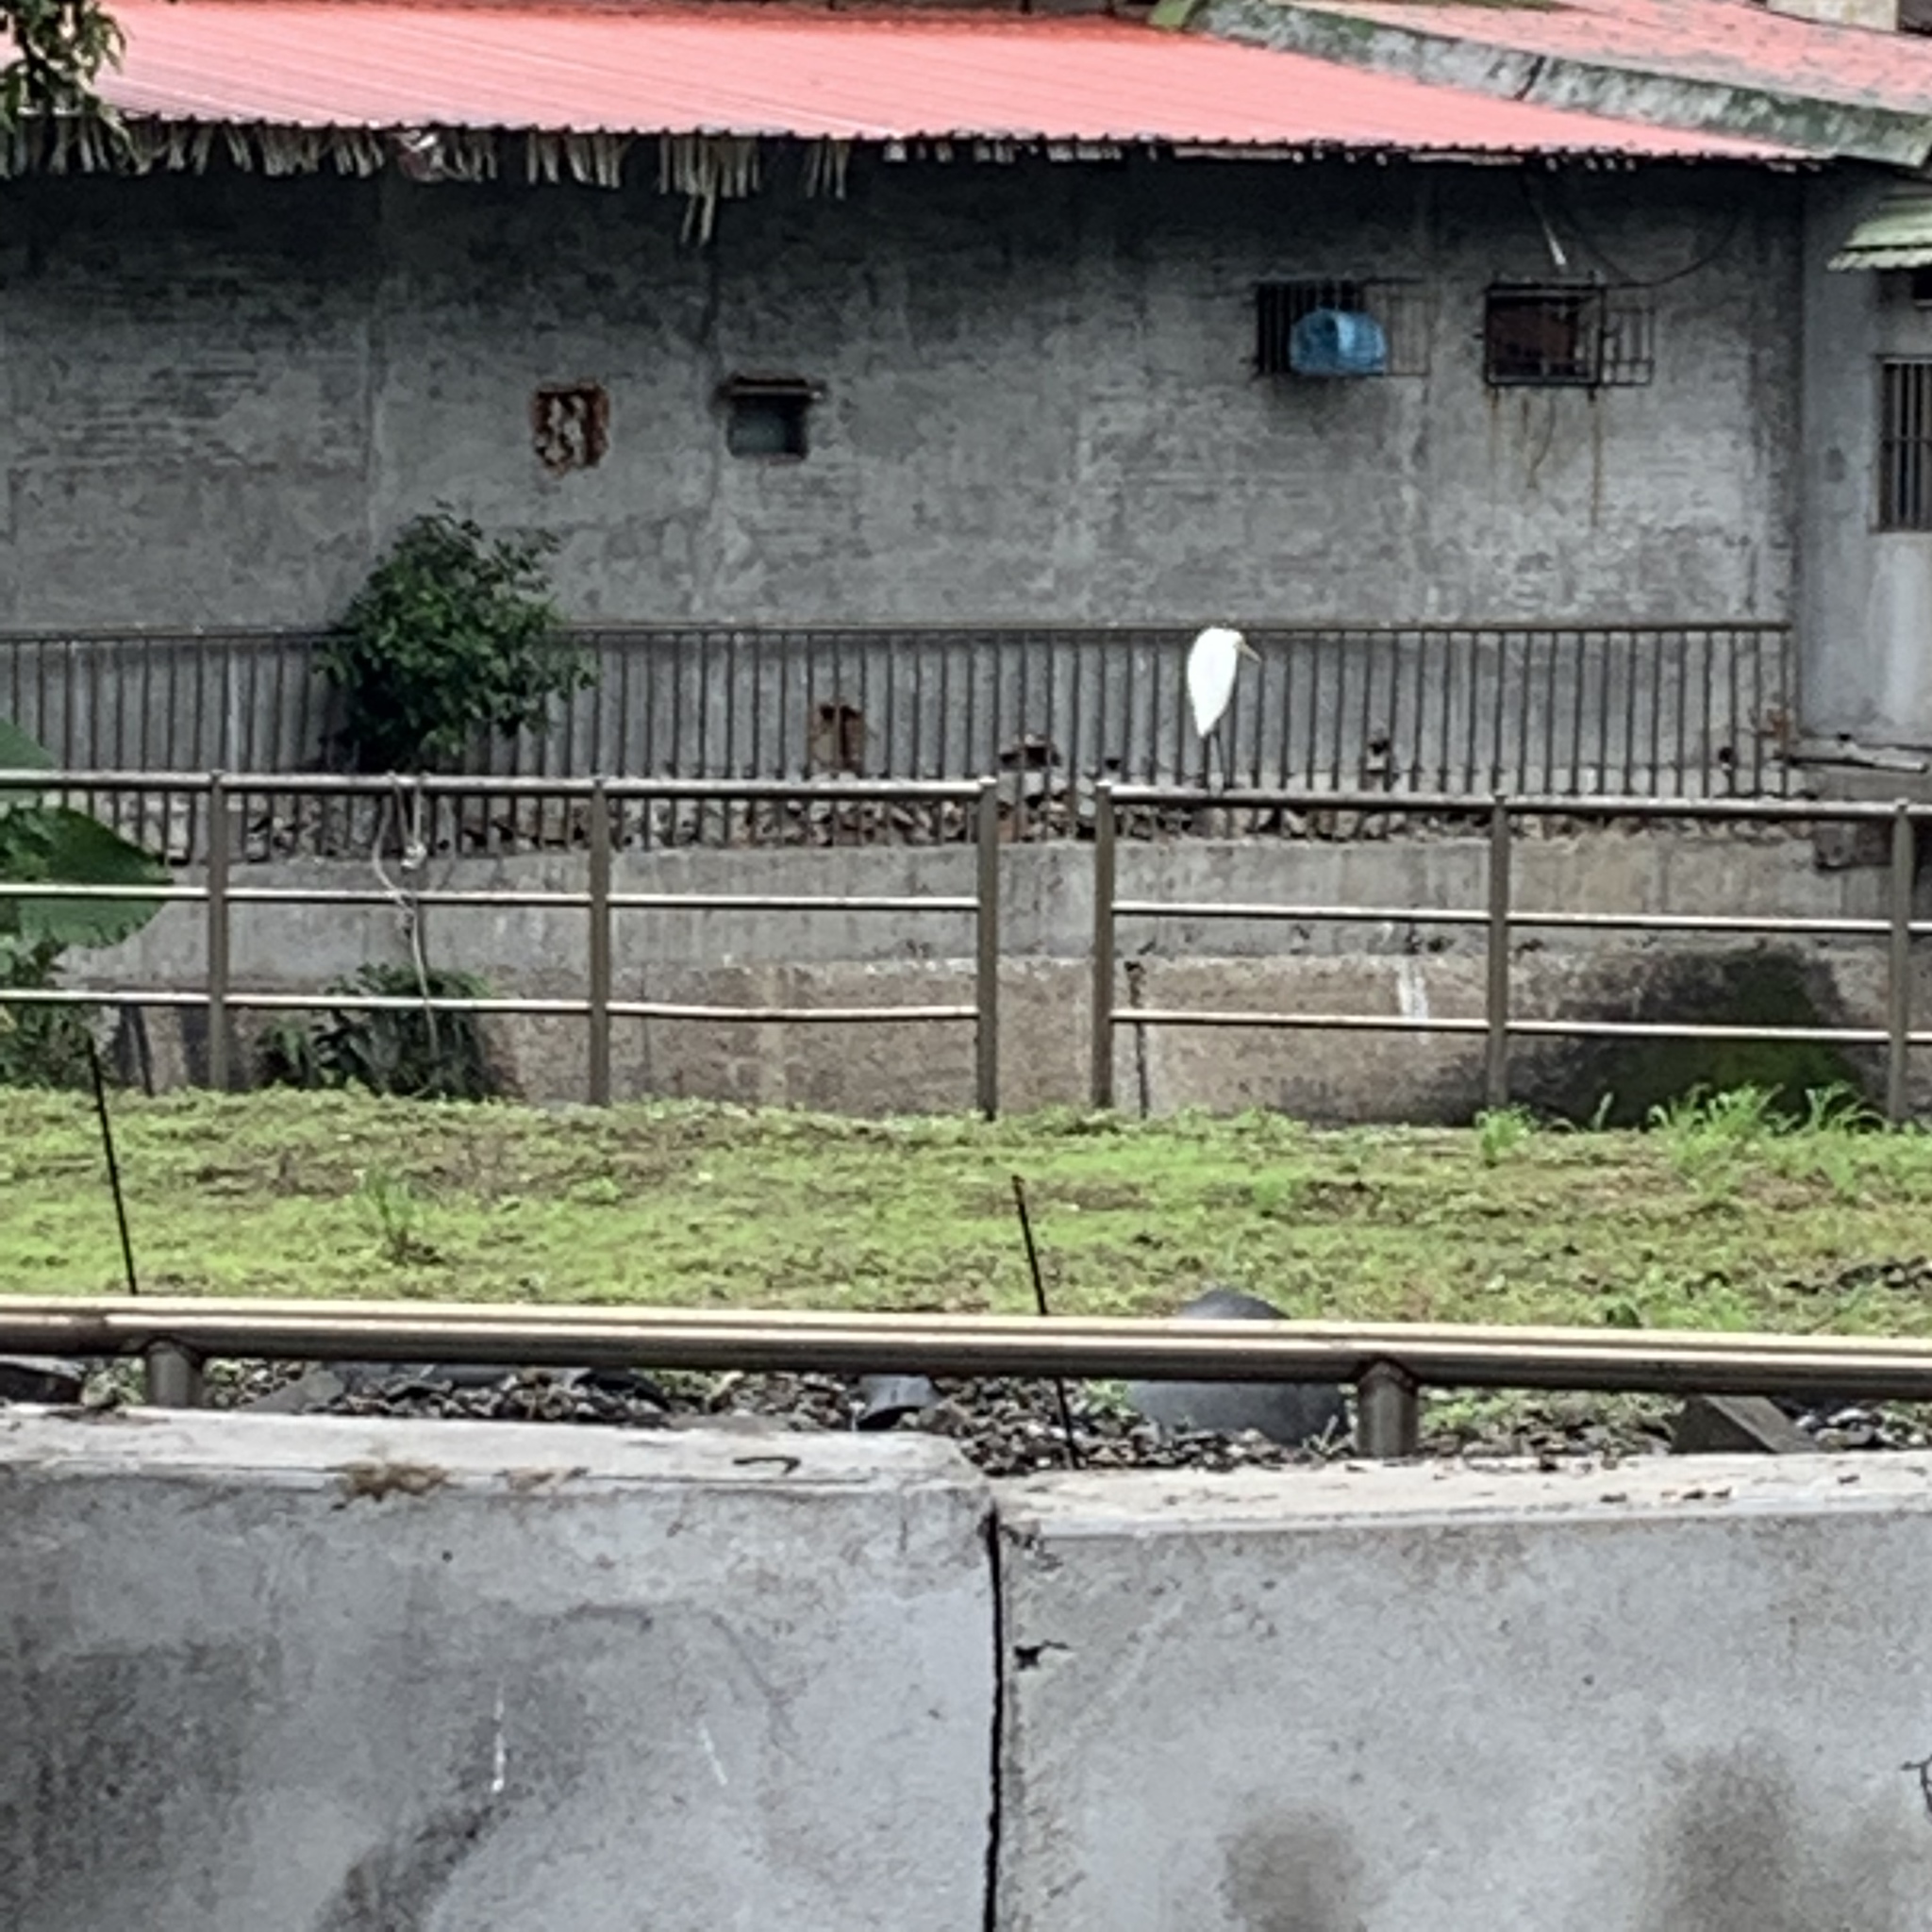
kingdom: Animalia
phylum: Chordata
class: Aves
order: Pelecaniformes
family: Ardeidae
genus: Ardea
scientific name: Ardea alba
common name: Great egret
